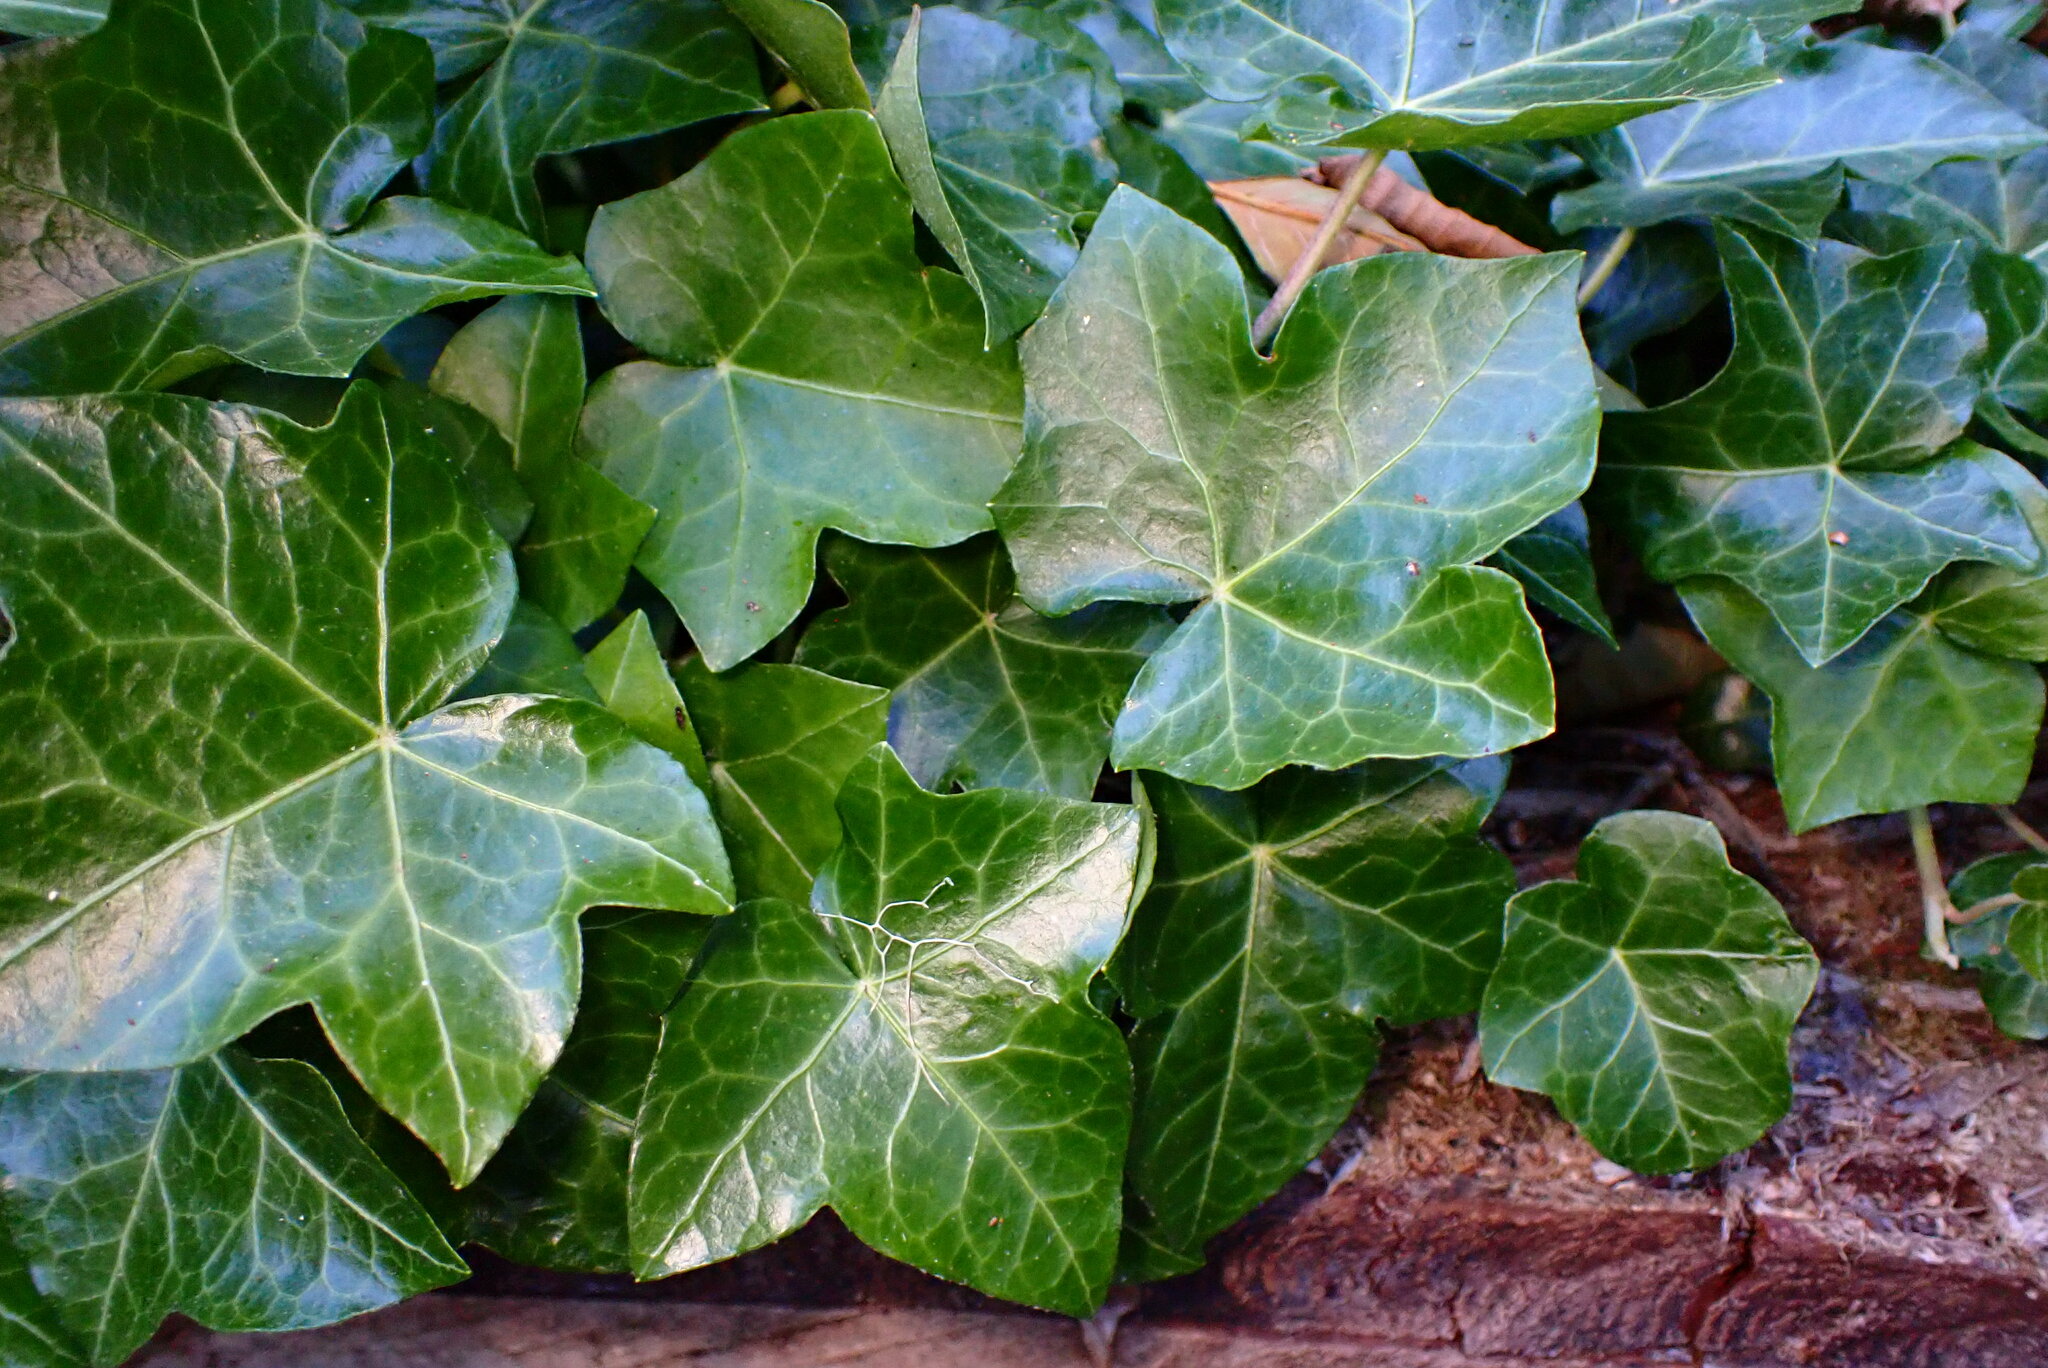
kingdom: Plantae
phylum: Tracheophyta
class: Magnoliopsida
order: Apiales
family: Araliaceae
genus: Hedera
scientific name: Hedera helix
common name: Ivy
